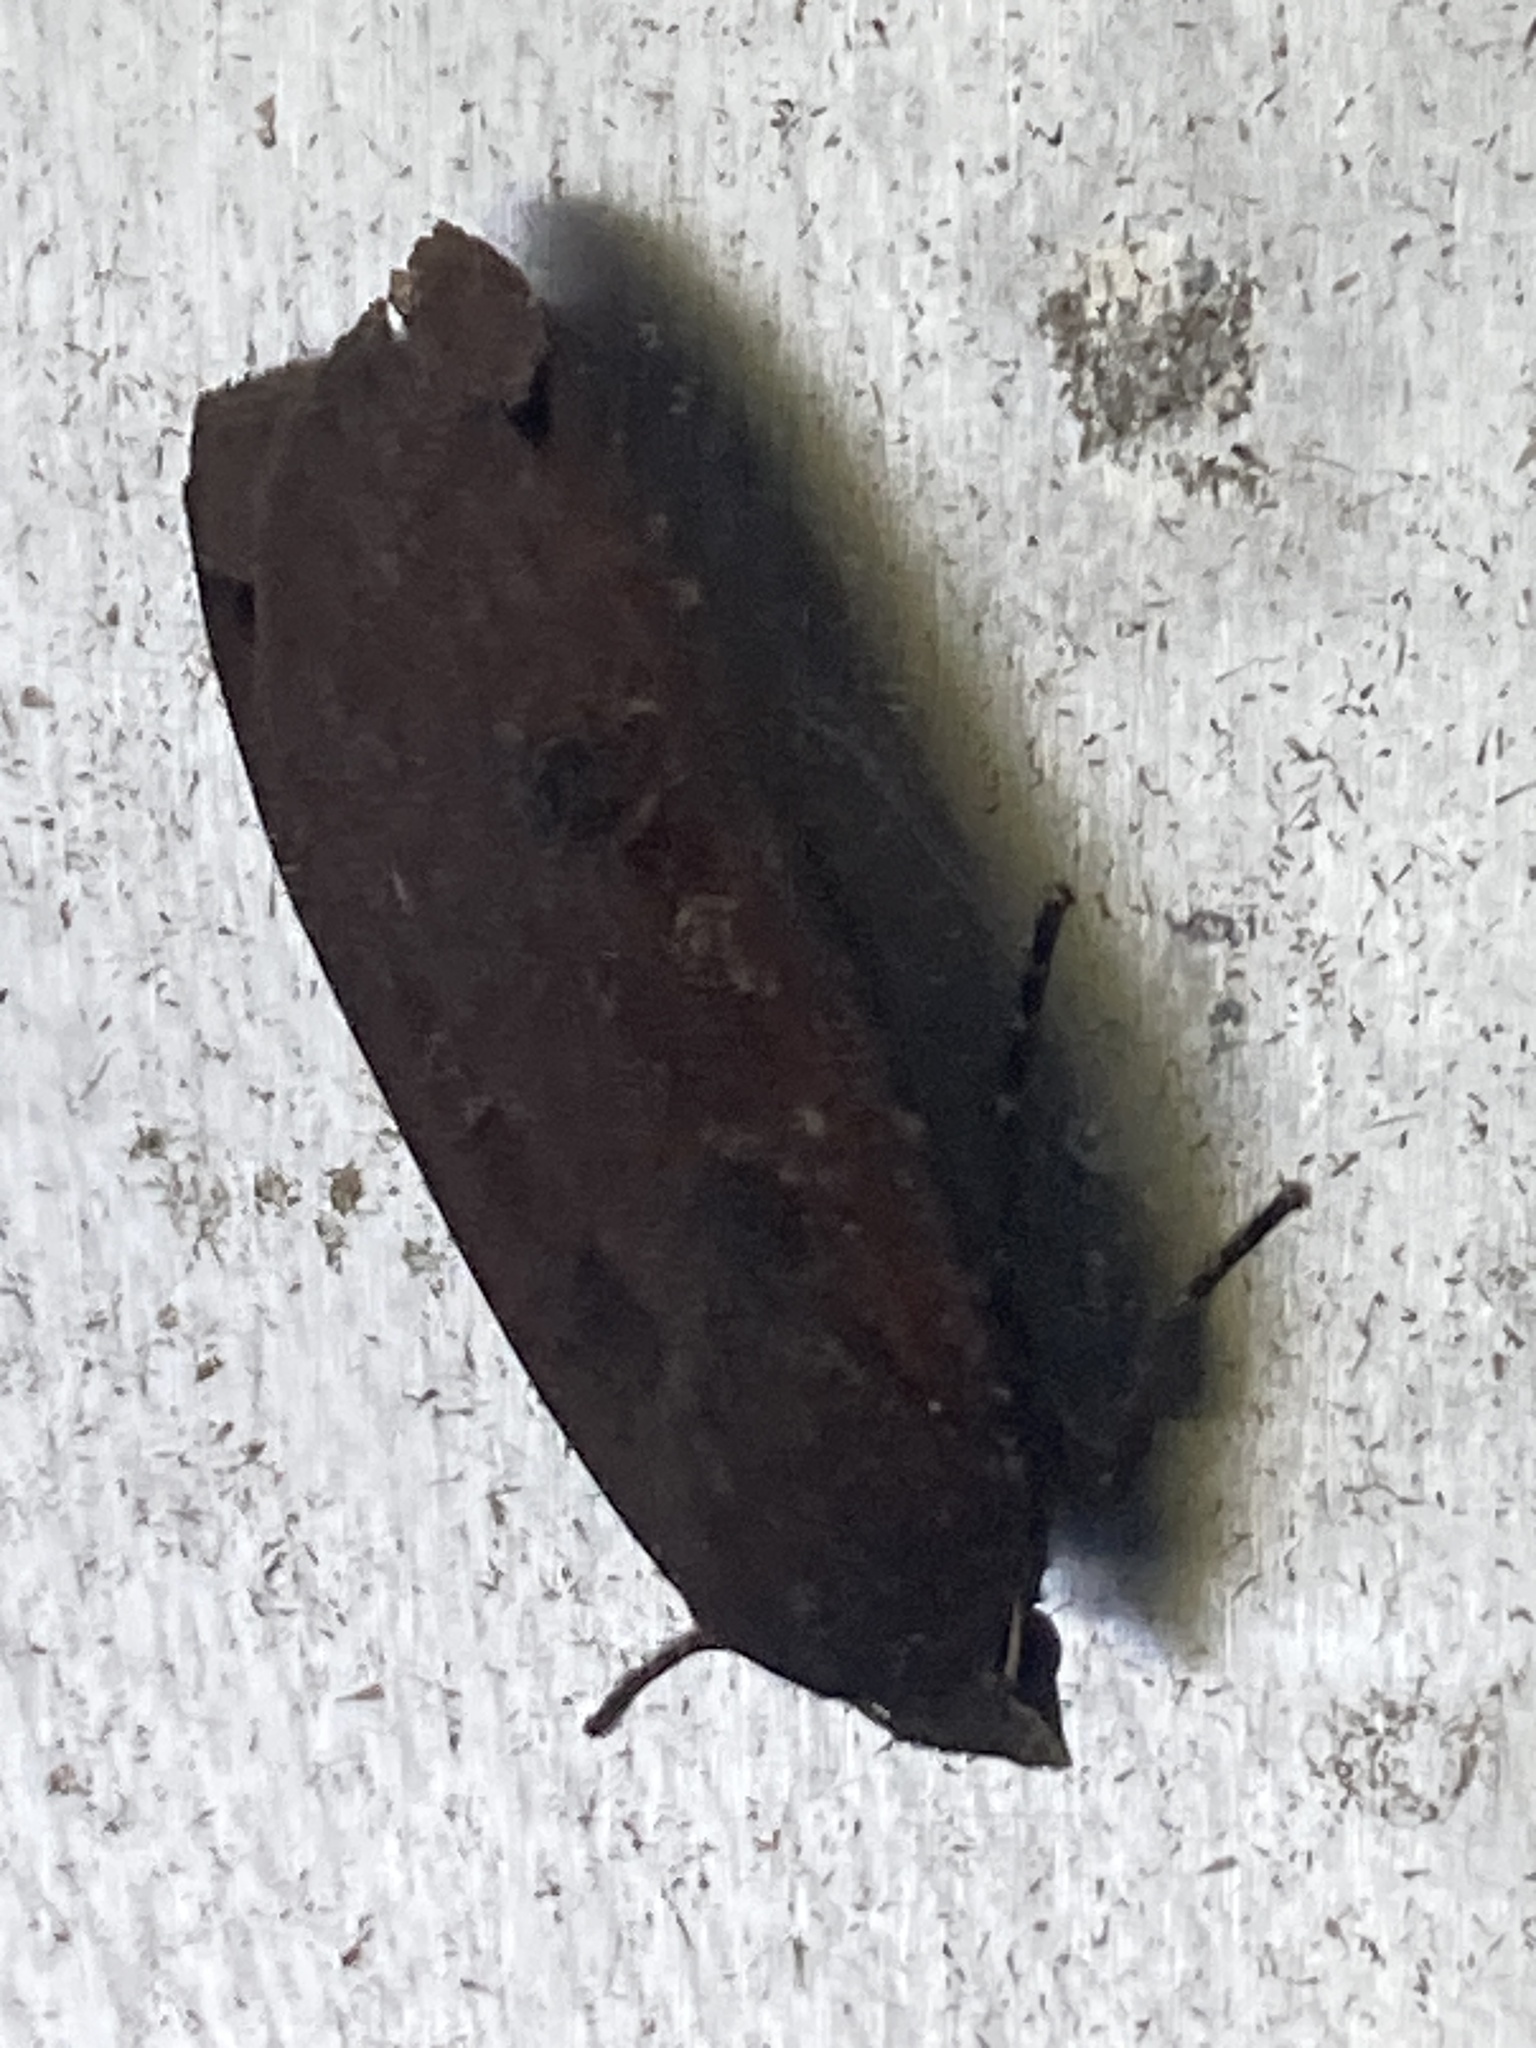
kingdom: Animalia
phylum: Arthropoda
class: Insecta
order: Lepidoptera
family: Noctuidae
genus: Noctua
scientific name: Noctua pronuba
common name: Large yellow underwing
